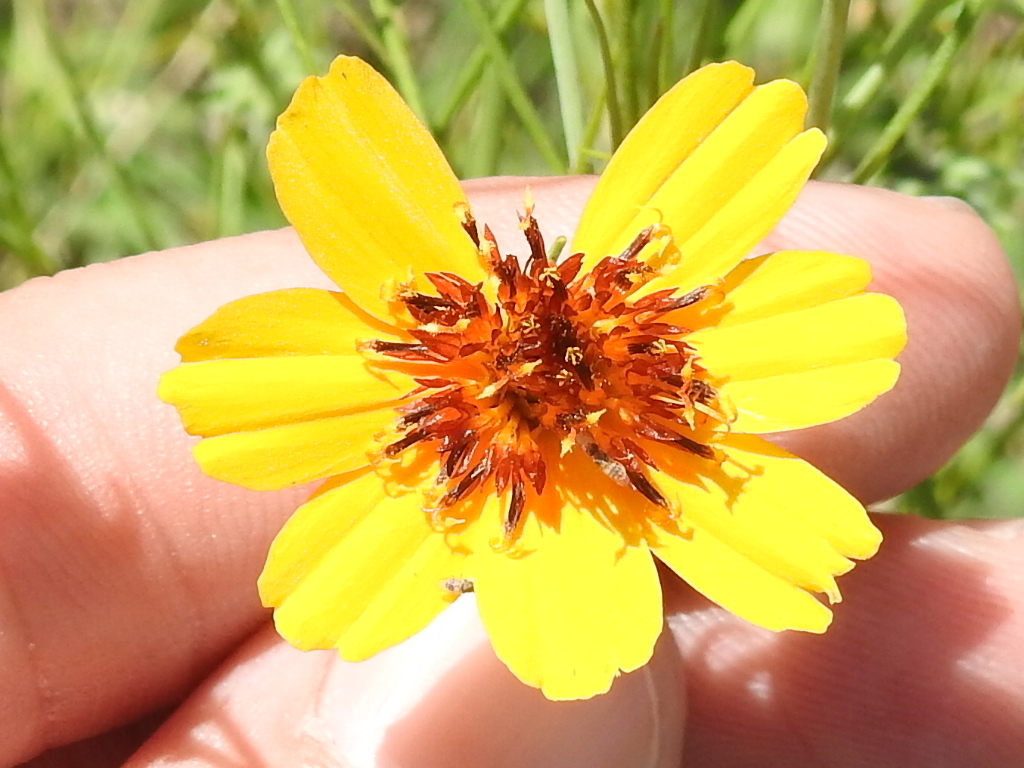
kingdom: Plantae
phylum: Tracheophyta
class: Magnoliopsida
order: Asterales
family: Asteraceae
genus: Thelesperma
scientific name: Thelesperma filifolium
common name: Stiff greenthread
